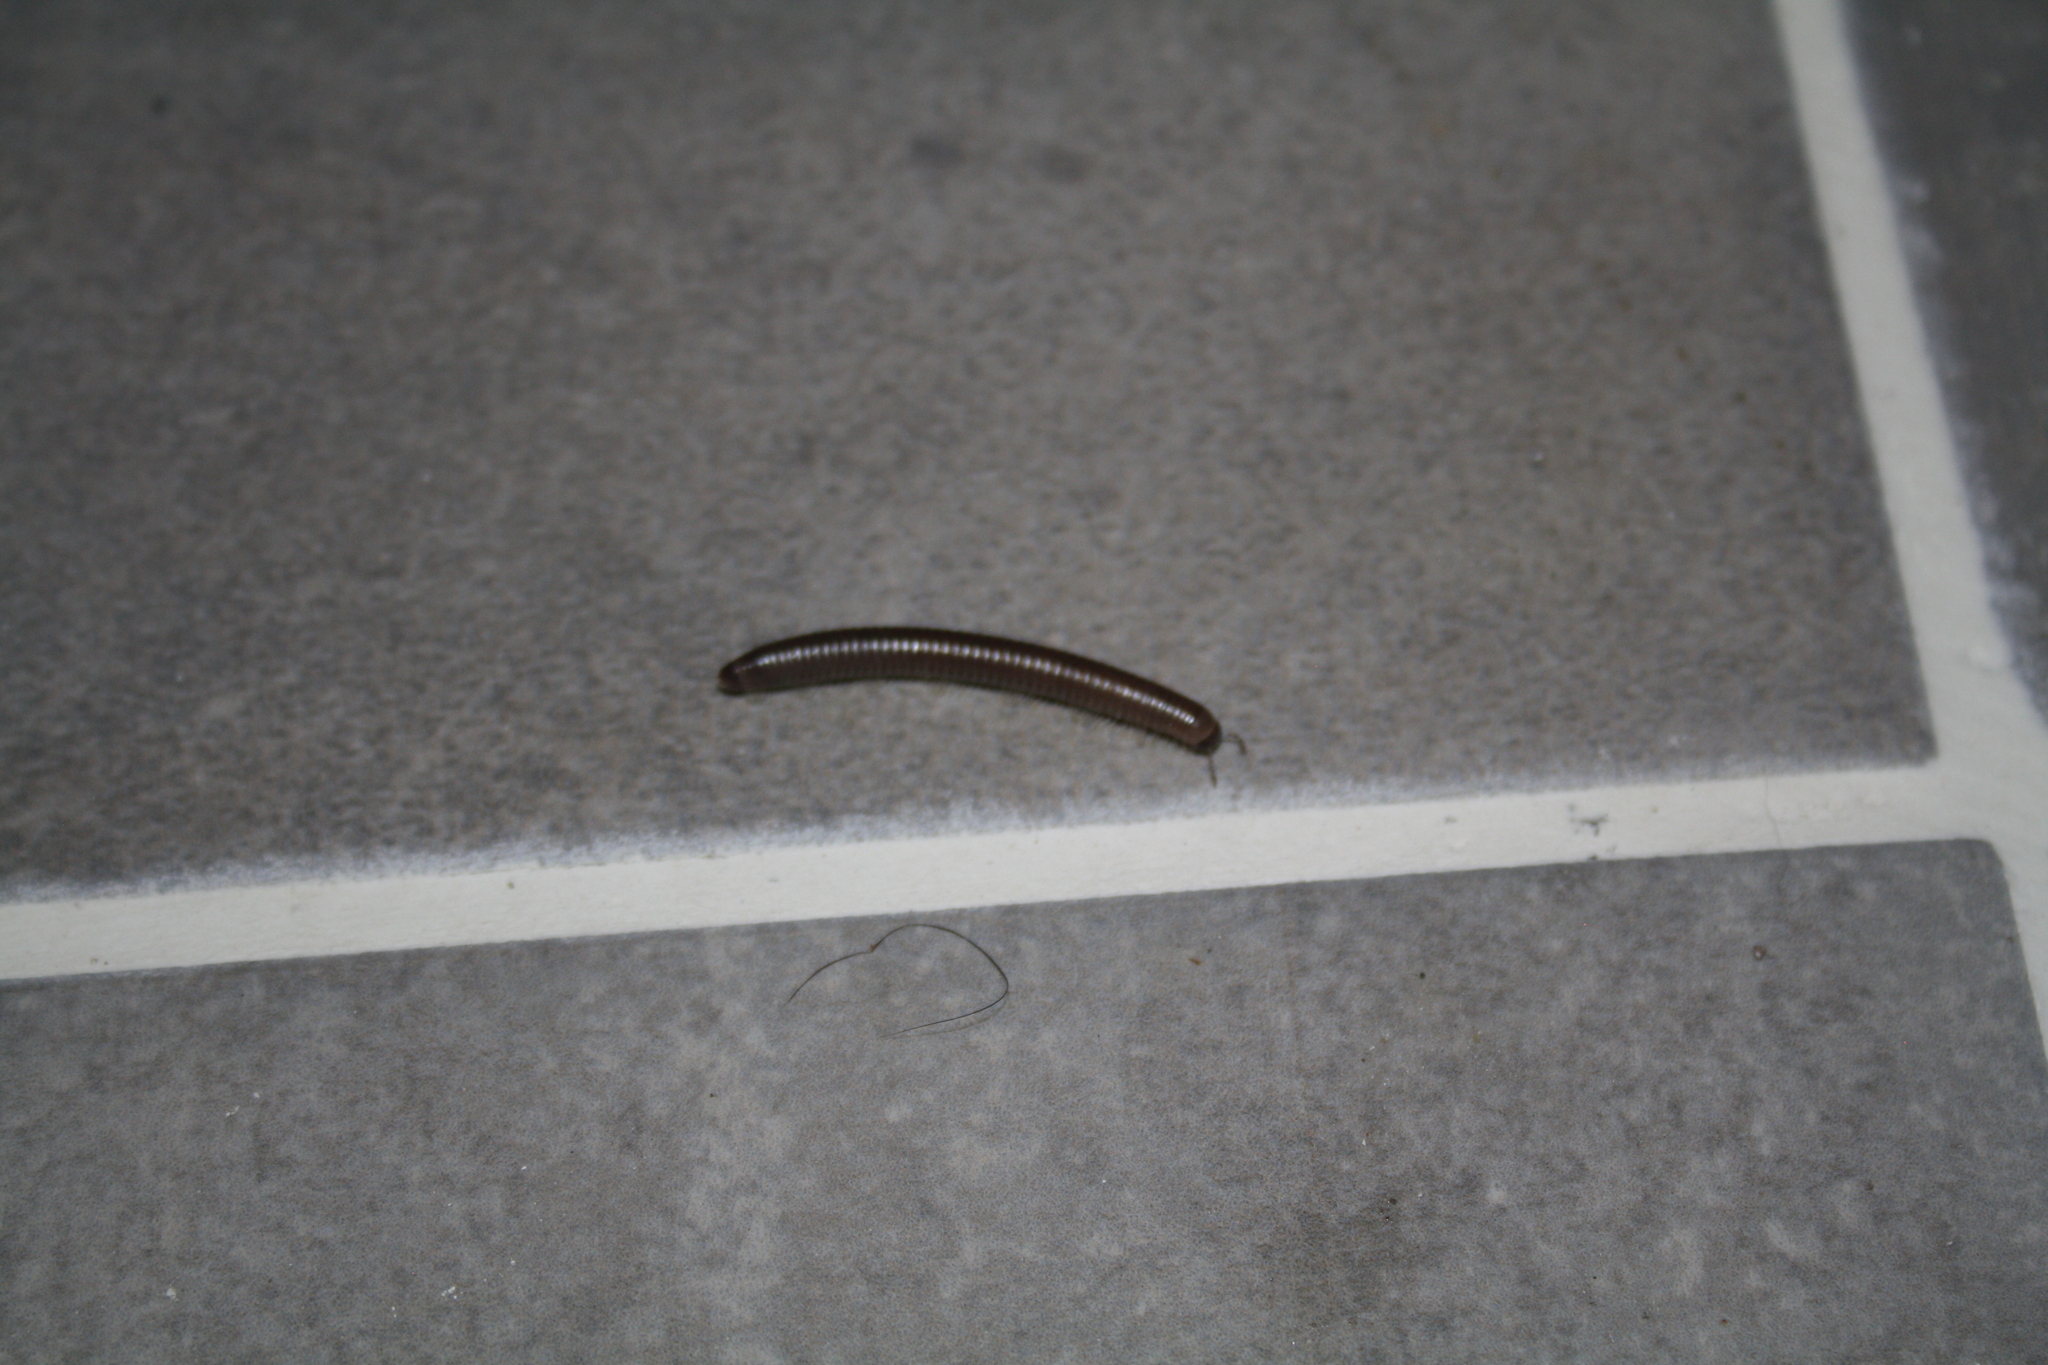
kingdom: Animalia
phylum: Arthropoda
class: Diplopoda
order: Julida
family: Julidae
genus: Pachyiulus
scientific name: Pachyiulus flavipes
